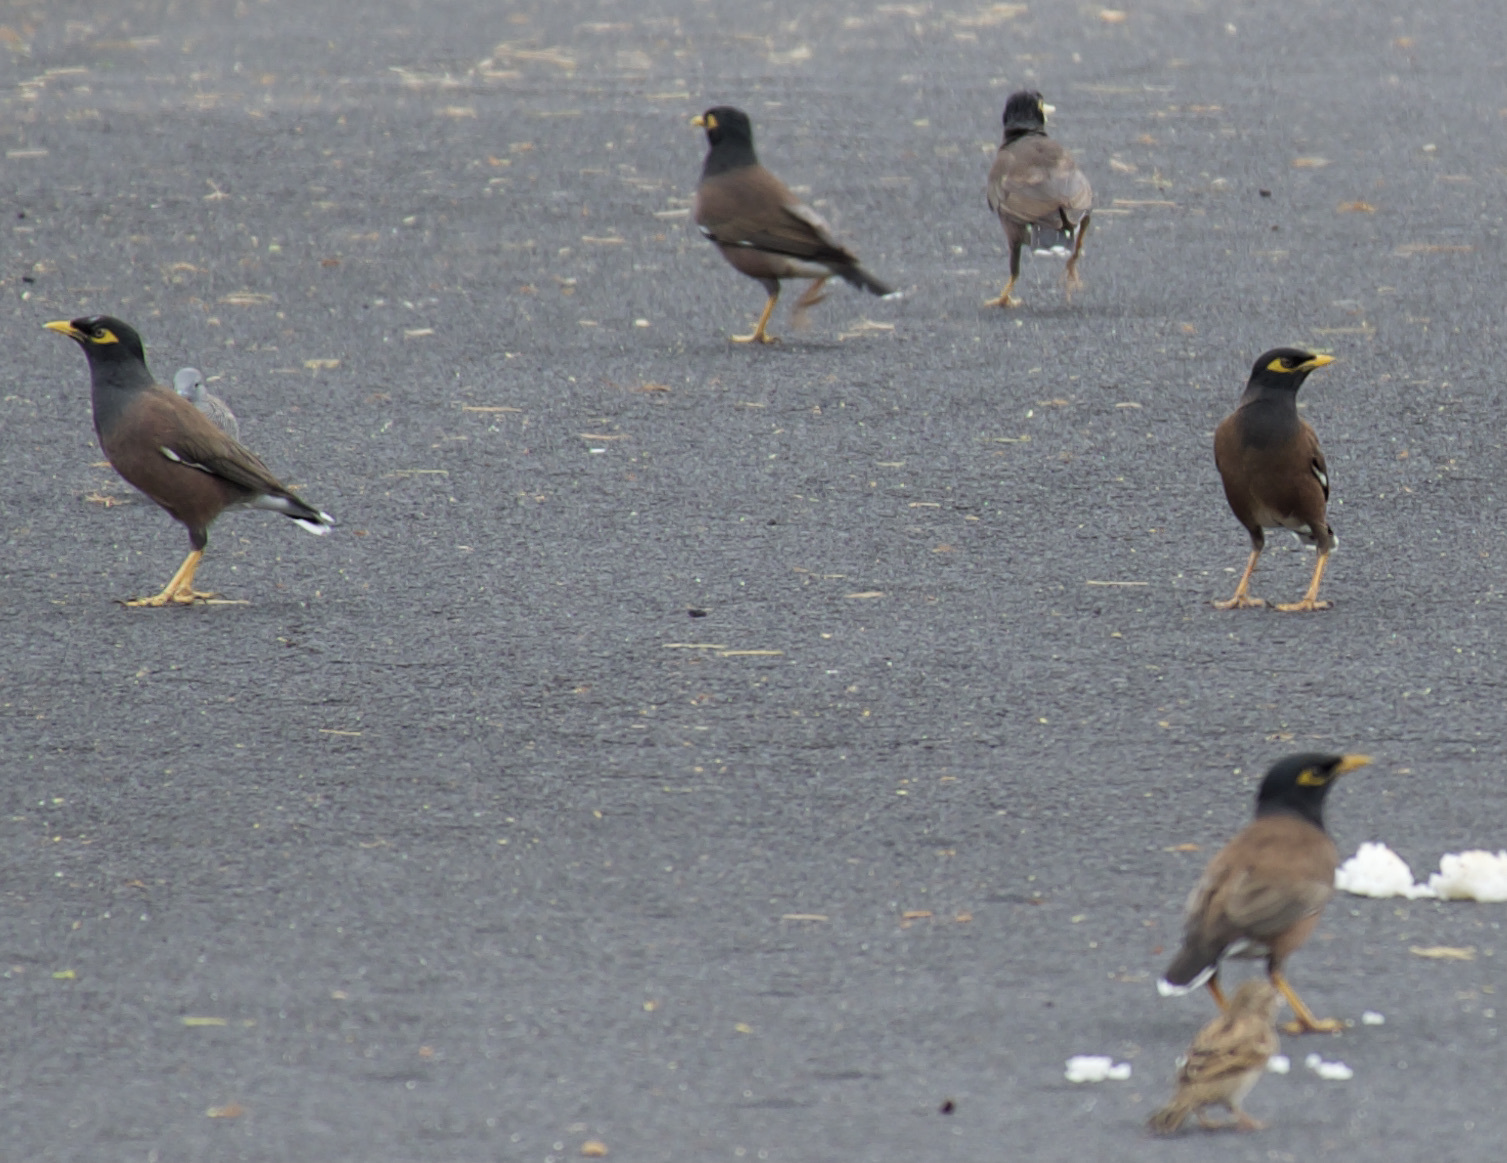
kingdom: Animalia
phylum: Chordata
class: Aves
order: Passeriformes
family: Sturnidae
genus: Acridotheres
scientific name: Acridotheres tristis
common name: Common myna
